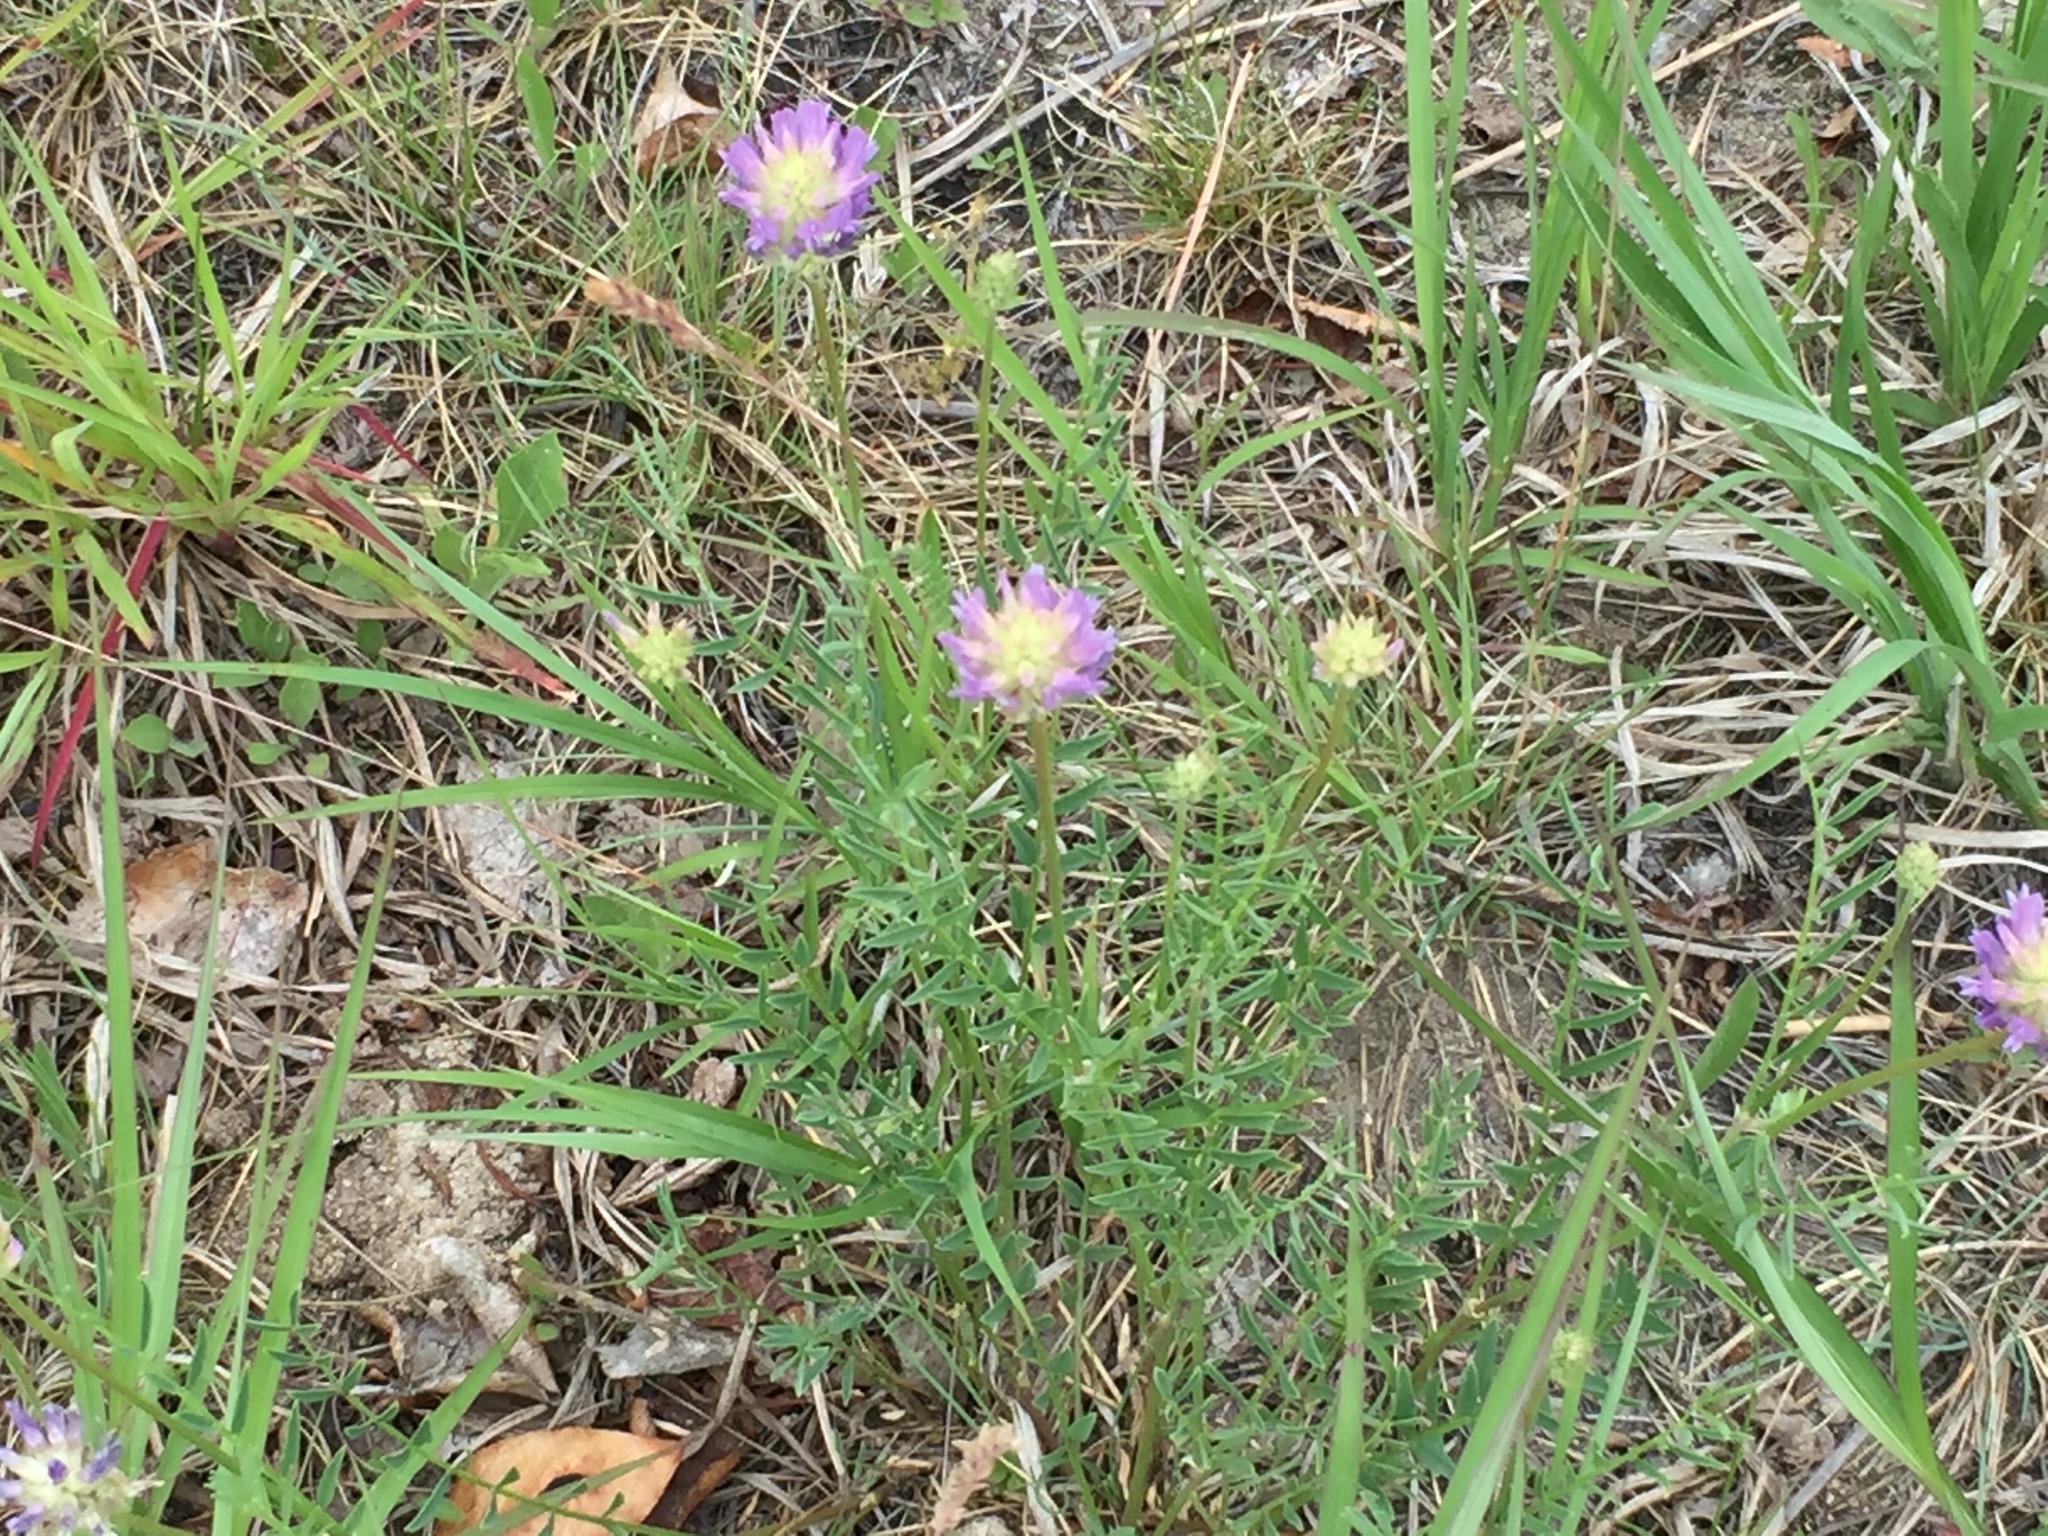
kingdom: Plantae
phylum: Tracheophyta
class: Magnoliopsida
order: Fabales
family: Fabaceae
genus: Astragalus
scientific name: Astragalus laxmannii
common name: Laxmann's milk-vetch
